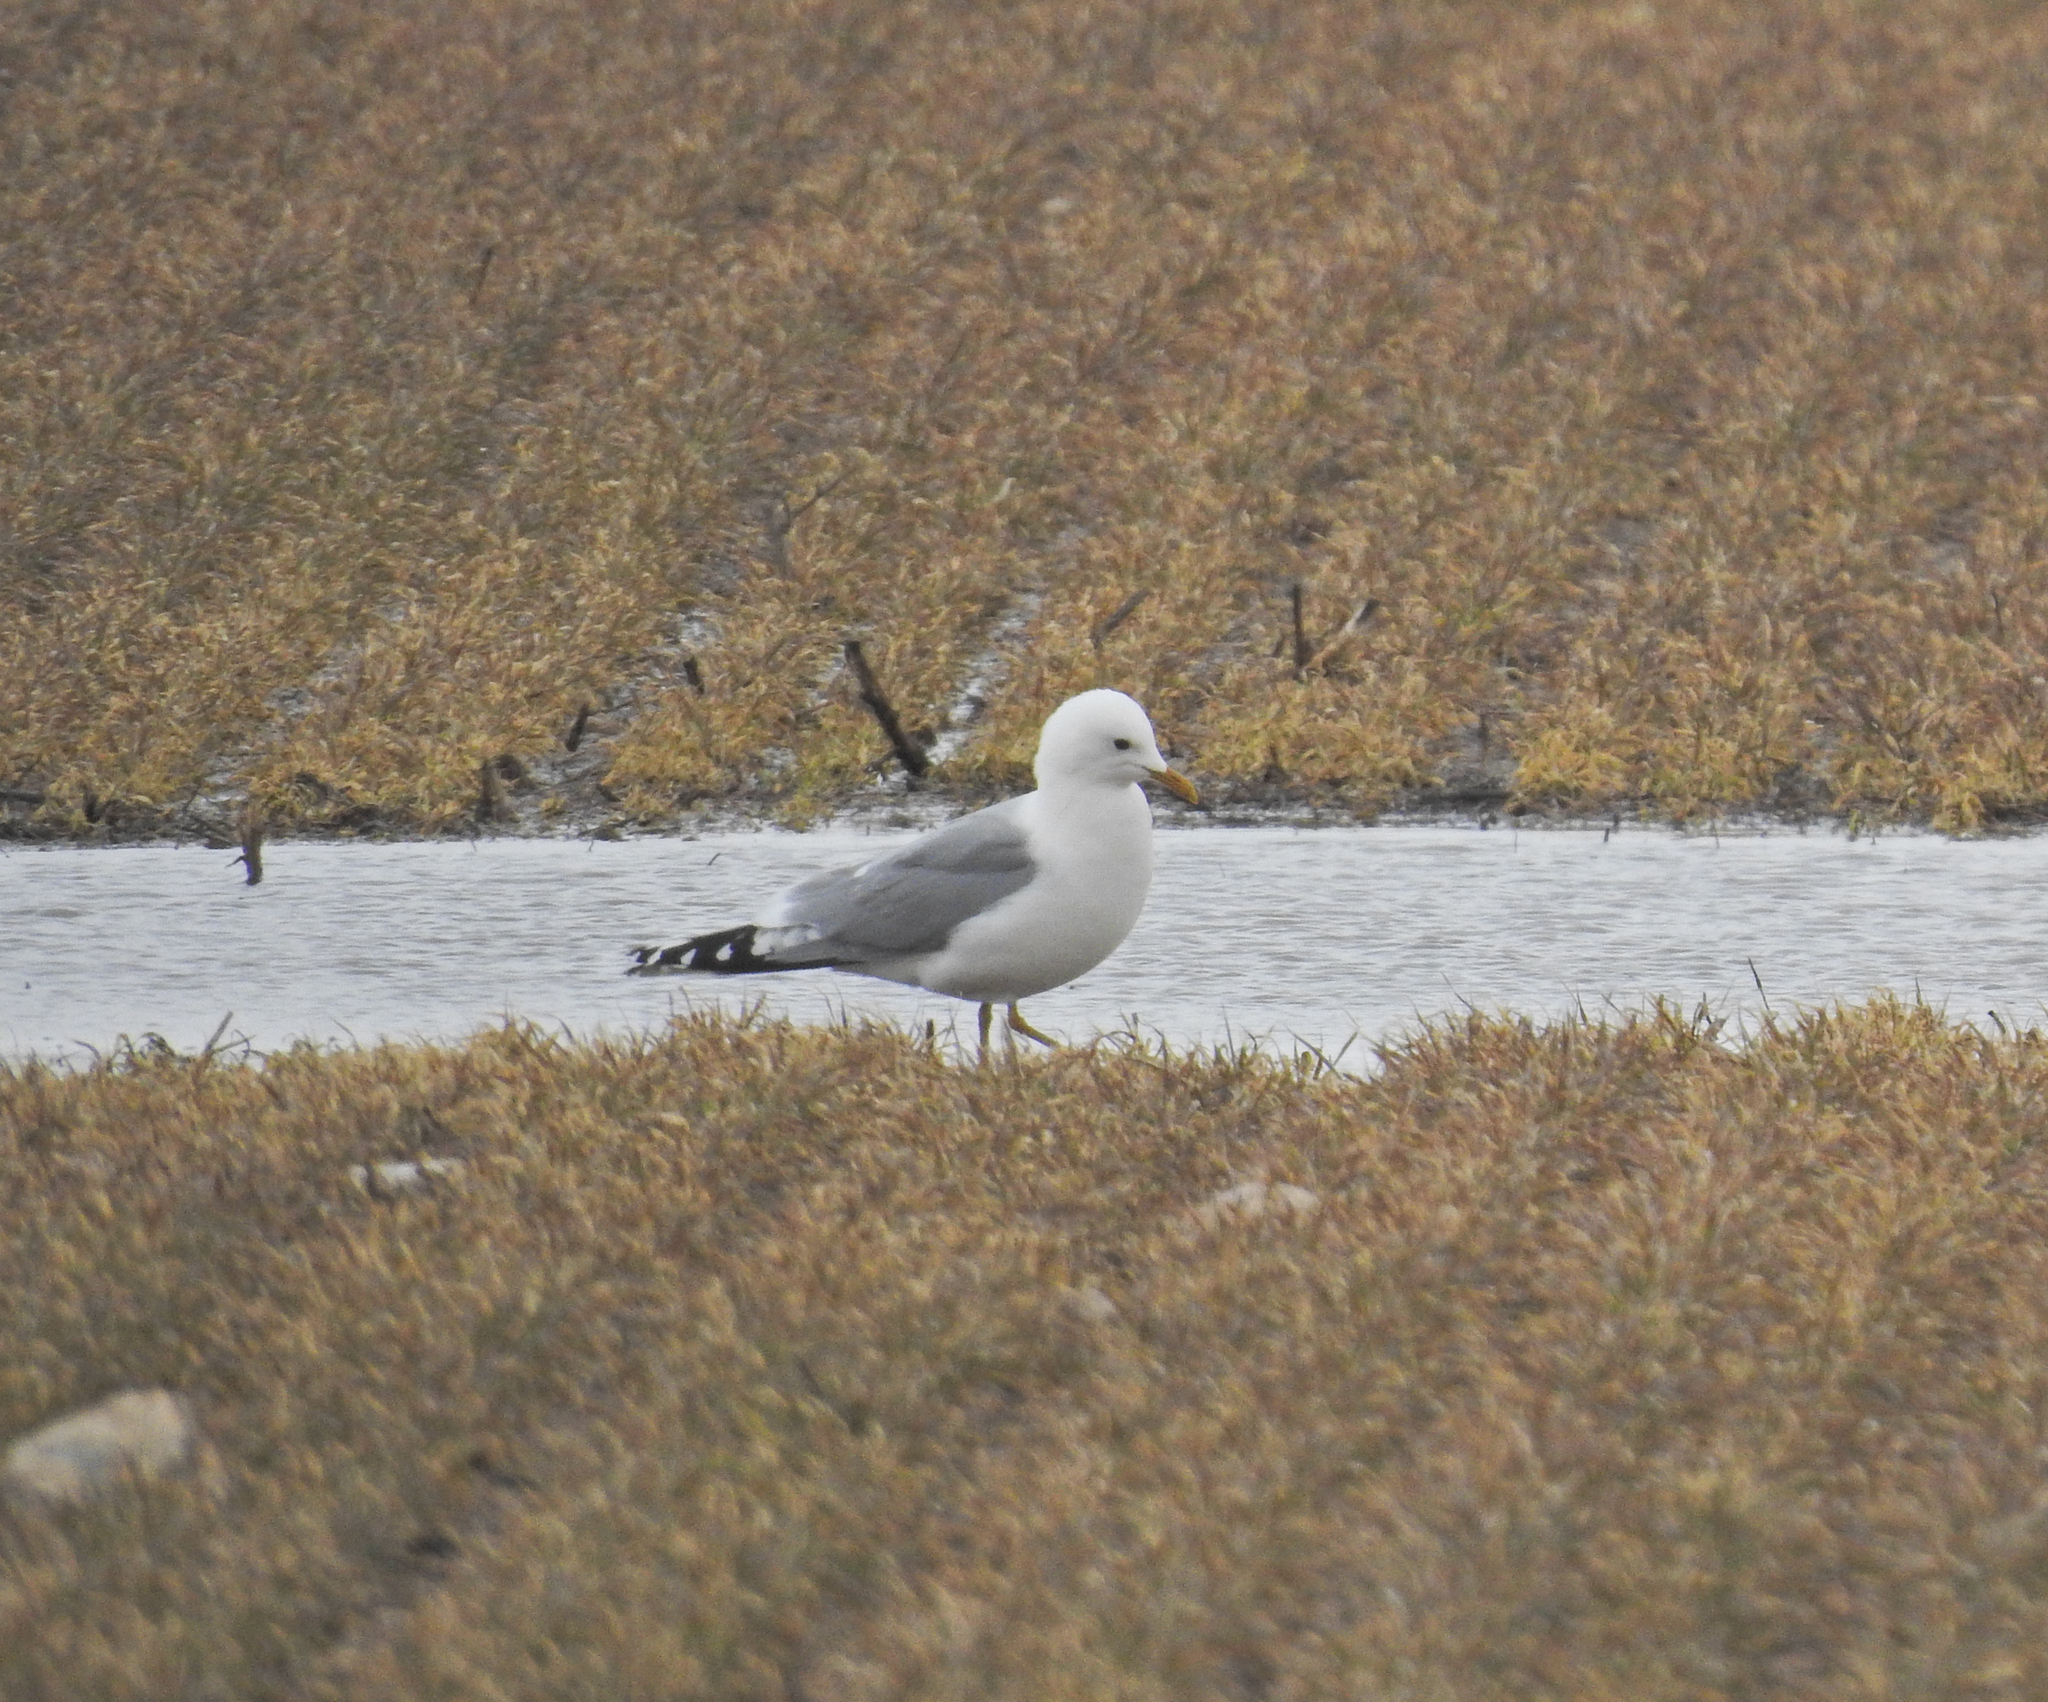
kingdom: Animalia
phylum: Chordata
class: Aves
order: Charadriiformes
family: Laridae
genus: Larus
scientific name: Larus canus
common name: Mew gull
